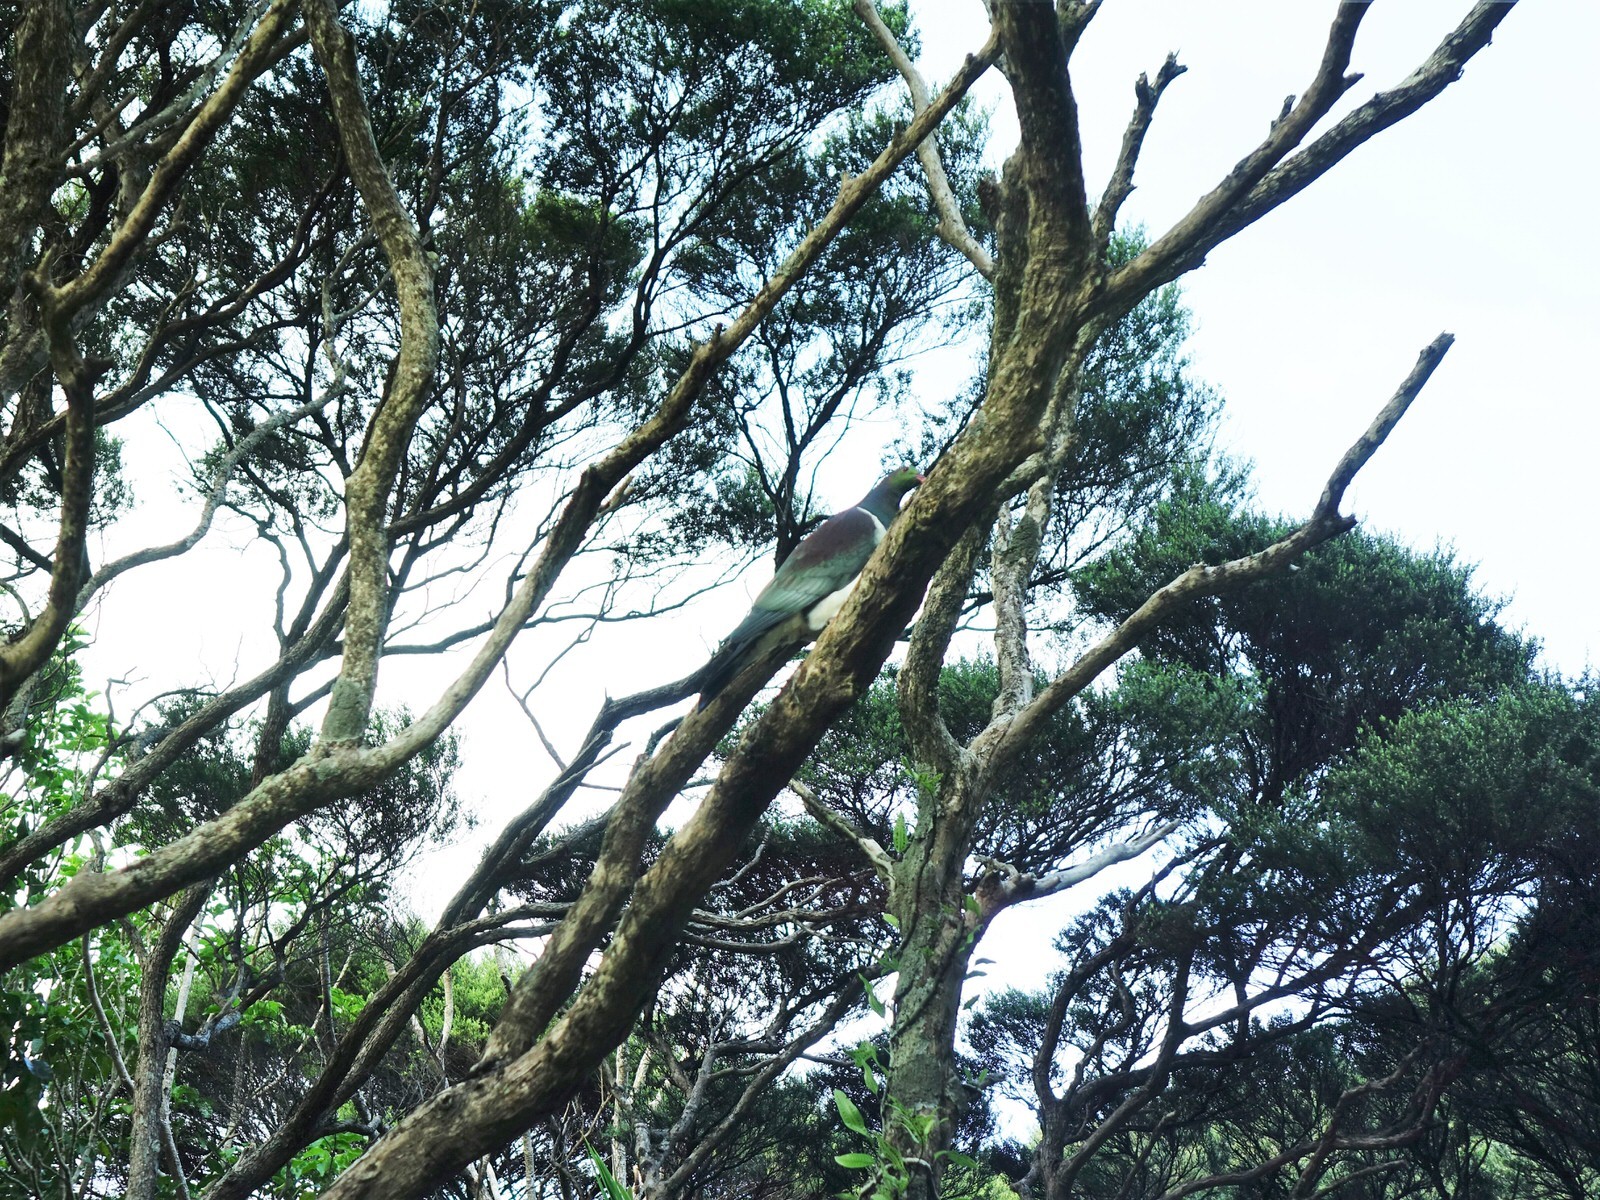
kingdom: Animalia
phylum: Chordata
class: Aves
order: Columbiformes
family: Columbidae
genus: Hemiphaga
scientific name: Hemiphaga novaeseelandiae
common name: New zealand pigeon
